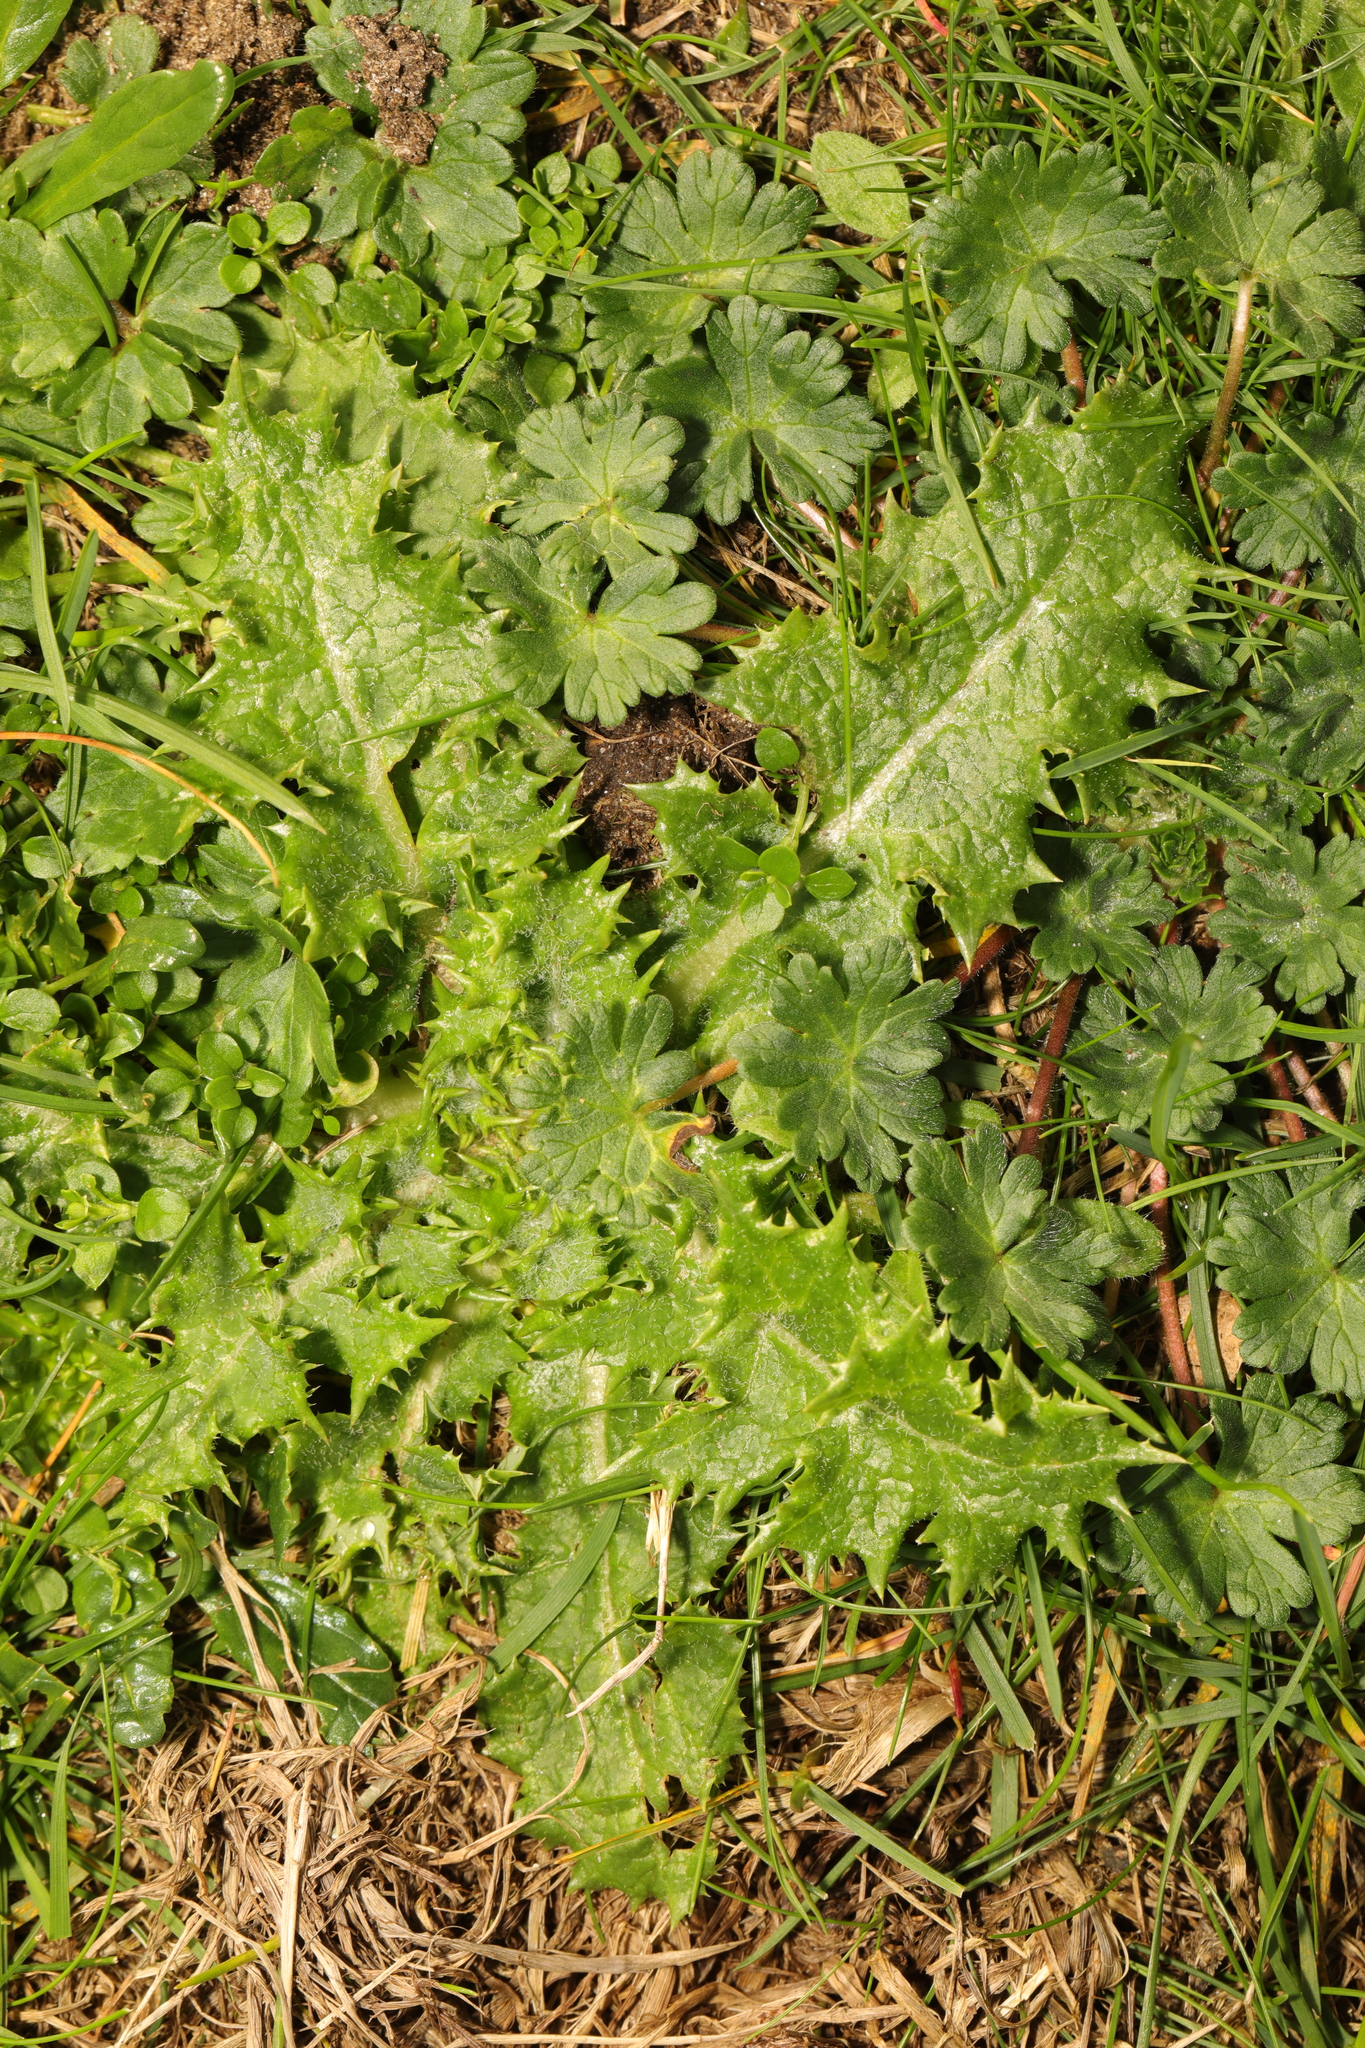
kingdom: Plantae
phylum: Tracheophyta
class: Magnoliopsida
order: Asterales
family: Asteraceae
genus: Sonchus
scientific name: Sonchus asper
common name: Prickly sow-thistle
